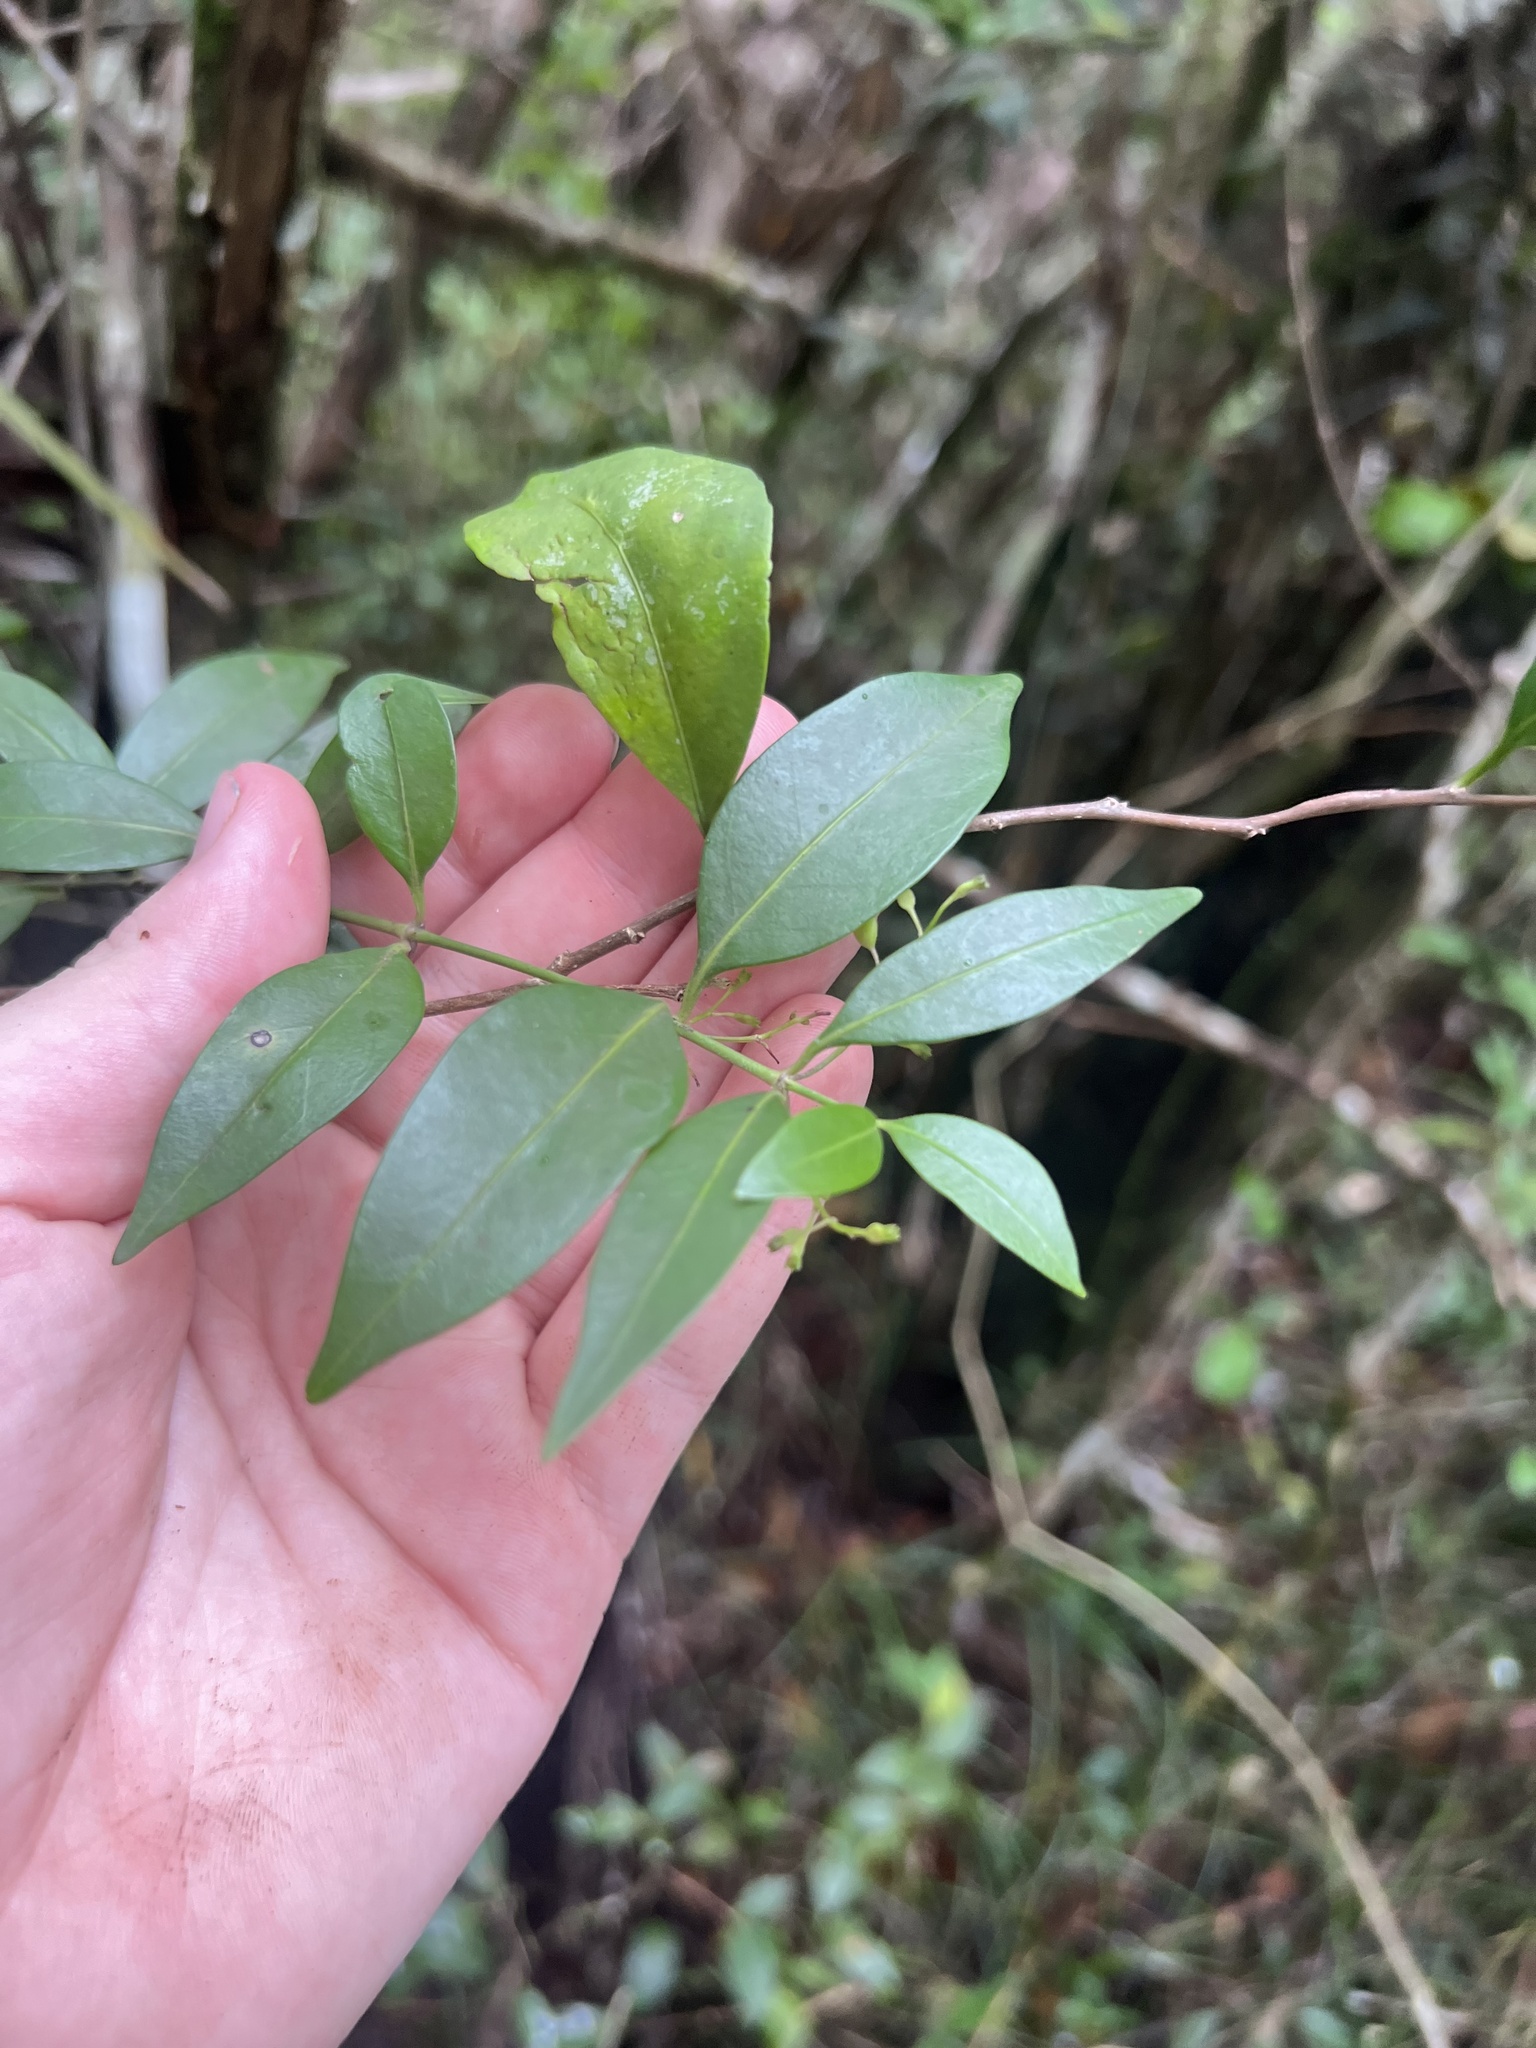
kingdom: Plantae
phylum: Tracheophyta
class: Magnoliopsida
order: Gentianales
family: Rubiaceae
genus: Chiococca
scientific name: Chiococca alba
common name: Snowberry
